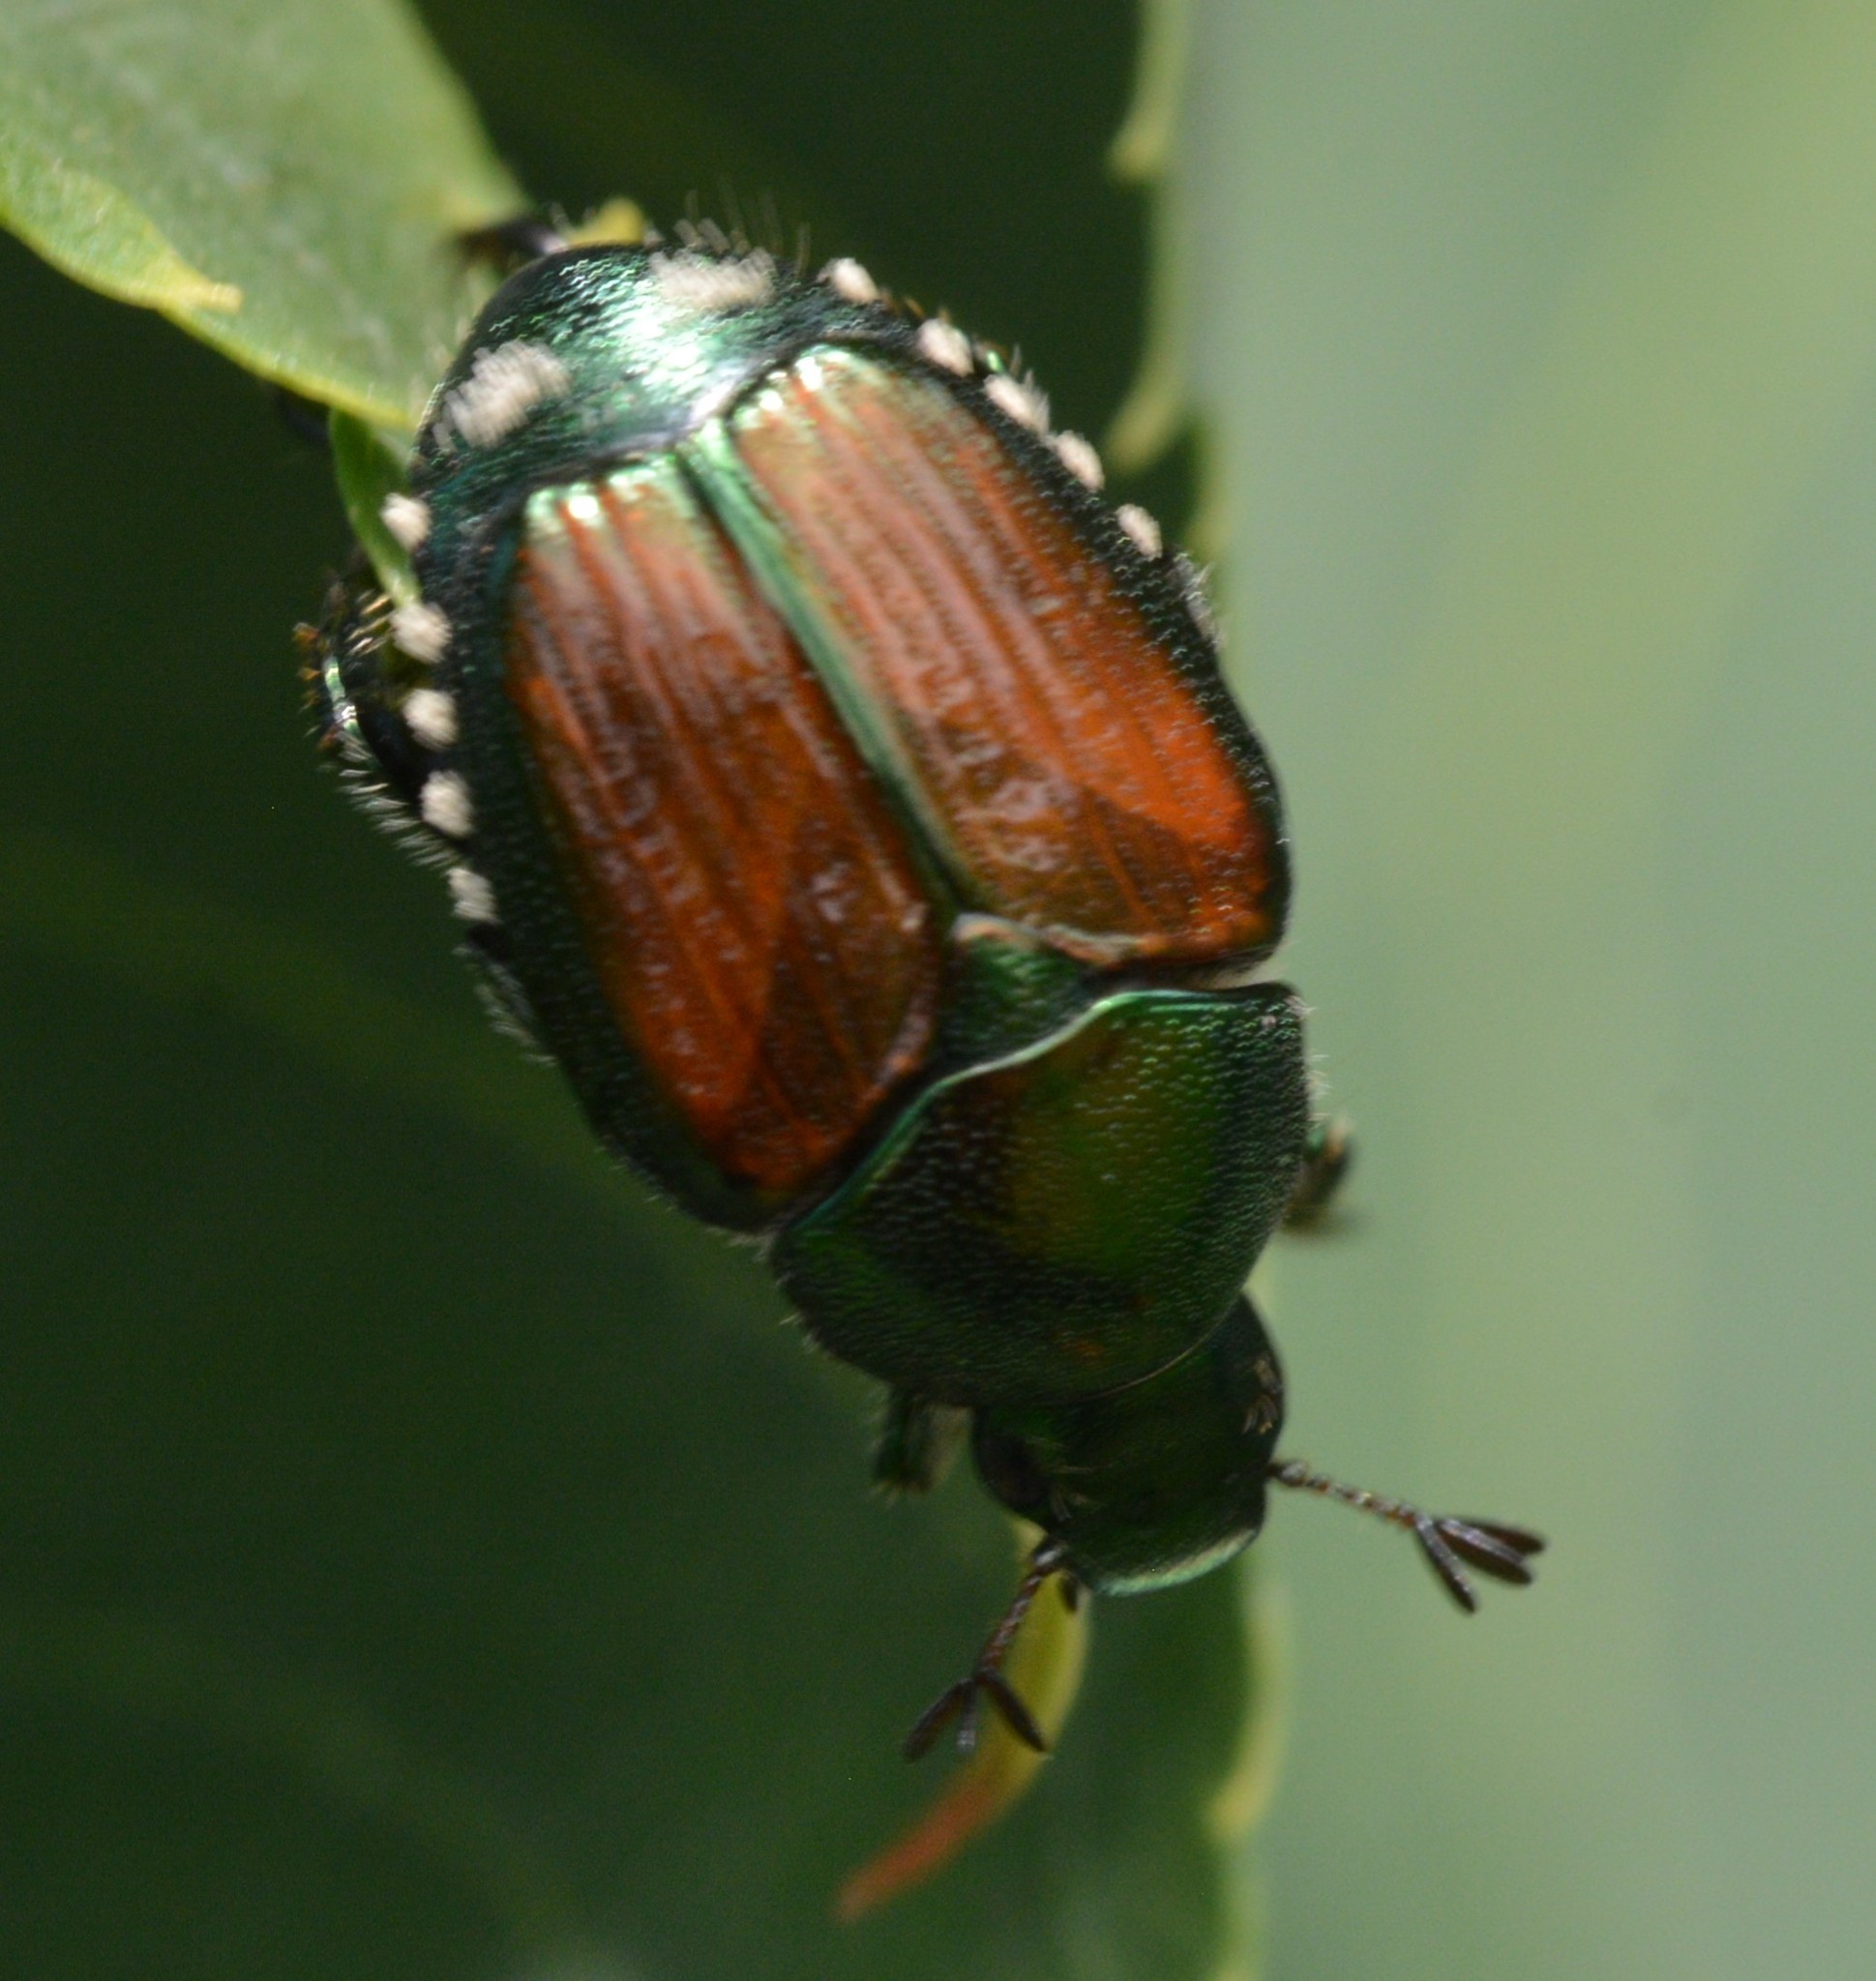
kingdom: Animalia
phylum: Arthropoda
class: Insecta
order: Coleoptera
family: Scarabaeidae
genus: Popillia
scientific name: Popillia japonica
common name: Japanese beetle
